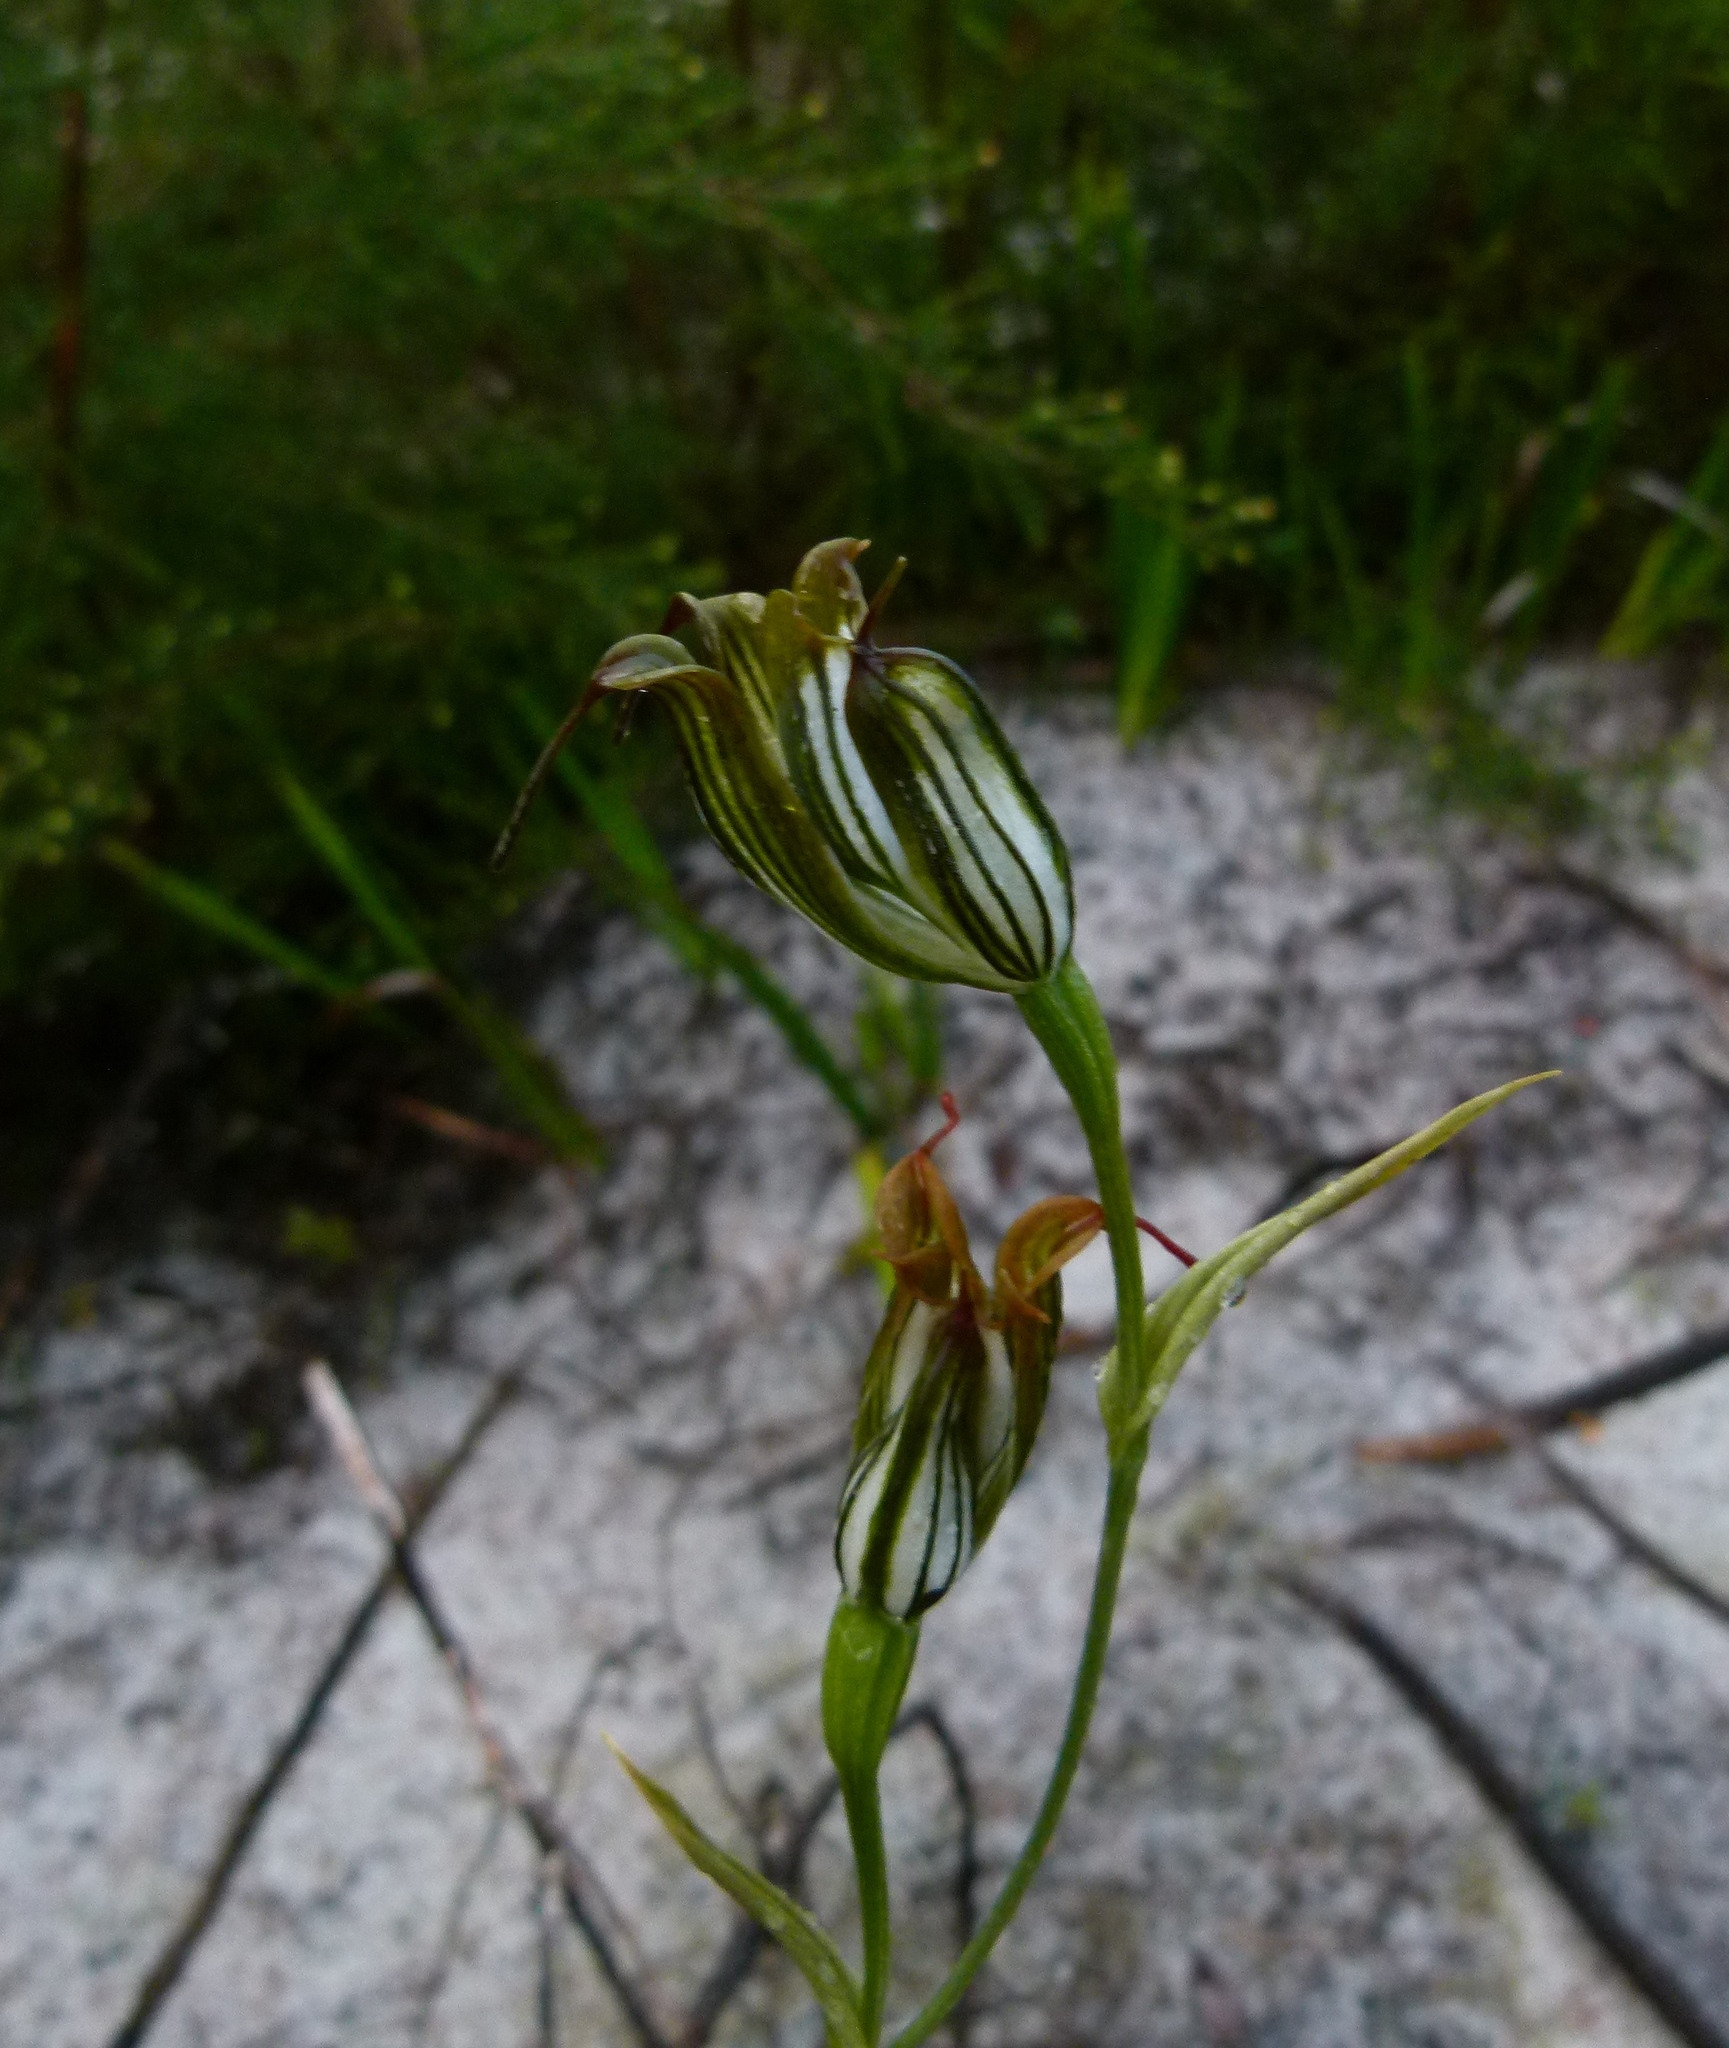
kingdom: Plantae
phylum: Tracheophyta
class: Liliopsida
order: Asparagales
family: Orchidaceae
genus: Pterostylis
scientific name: Pterostylis recurva
